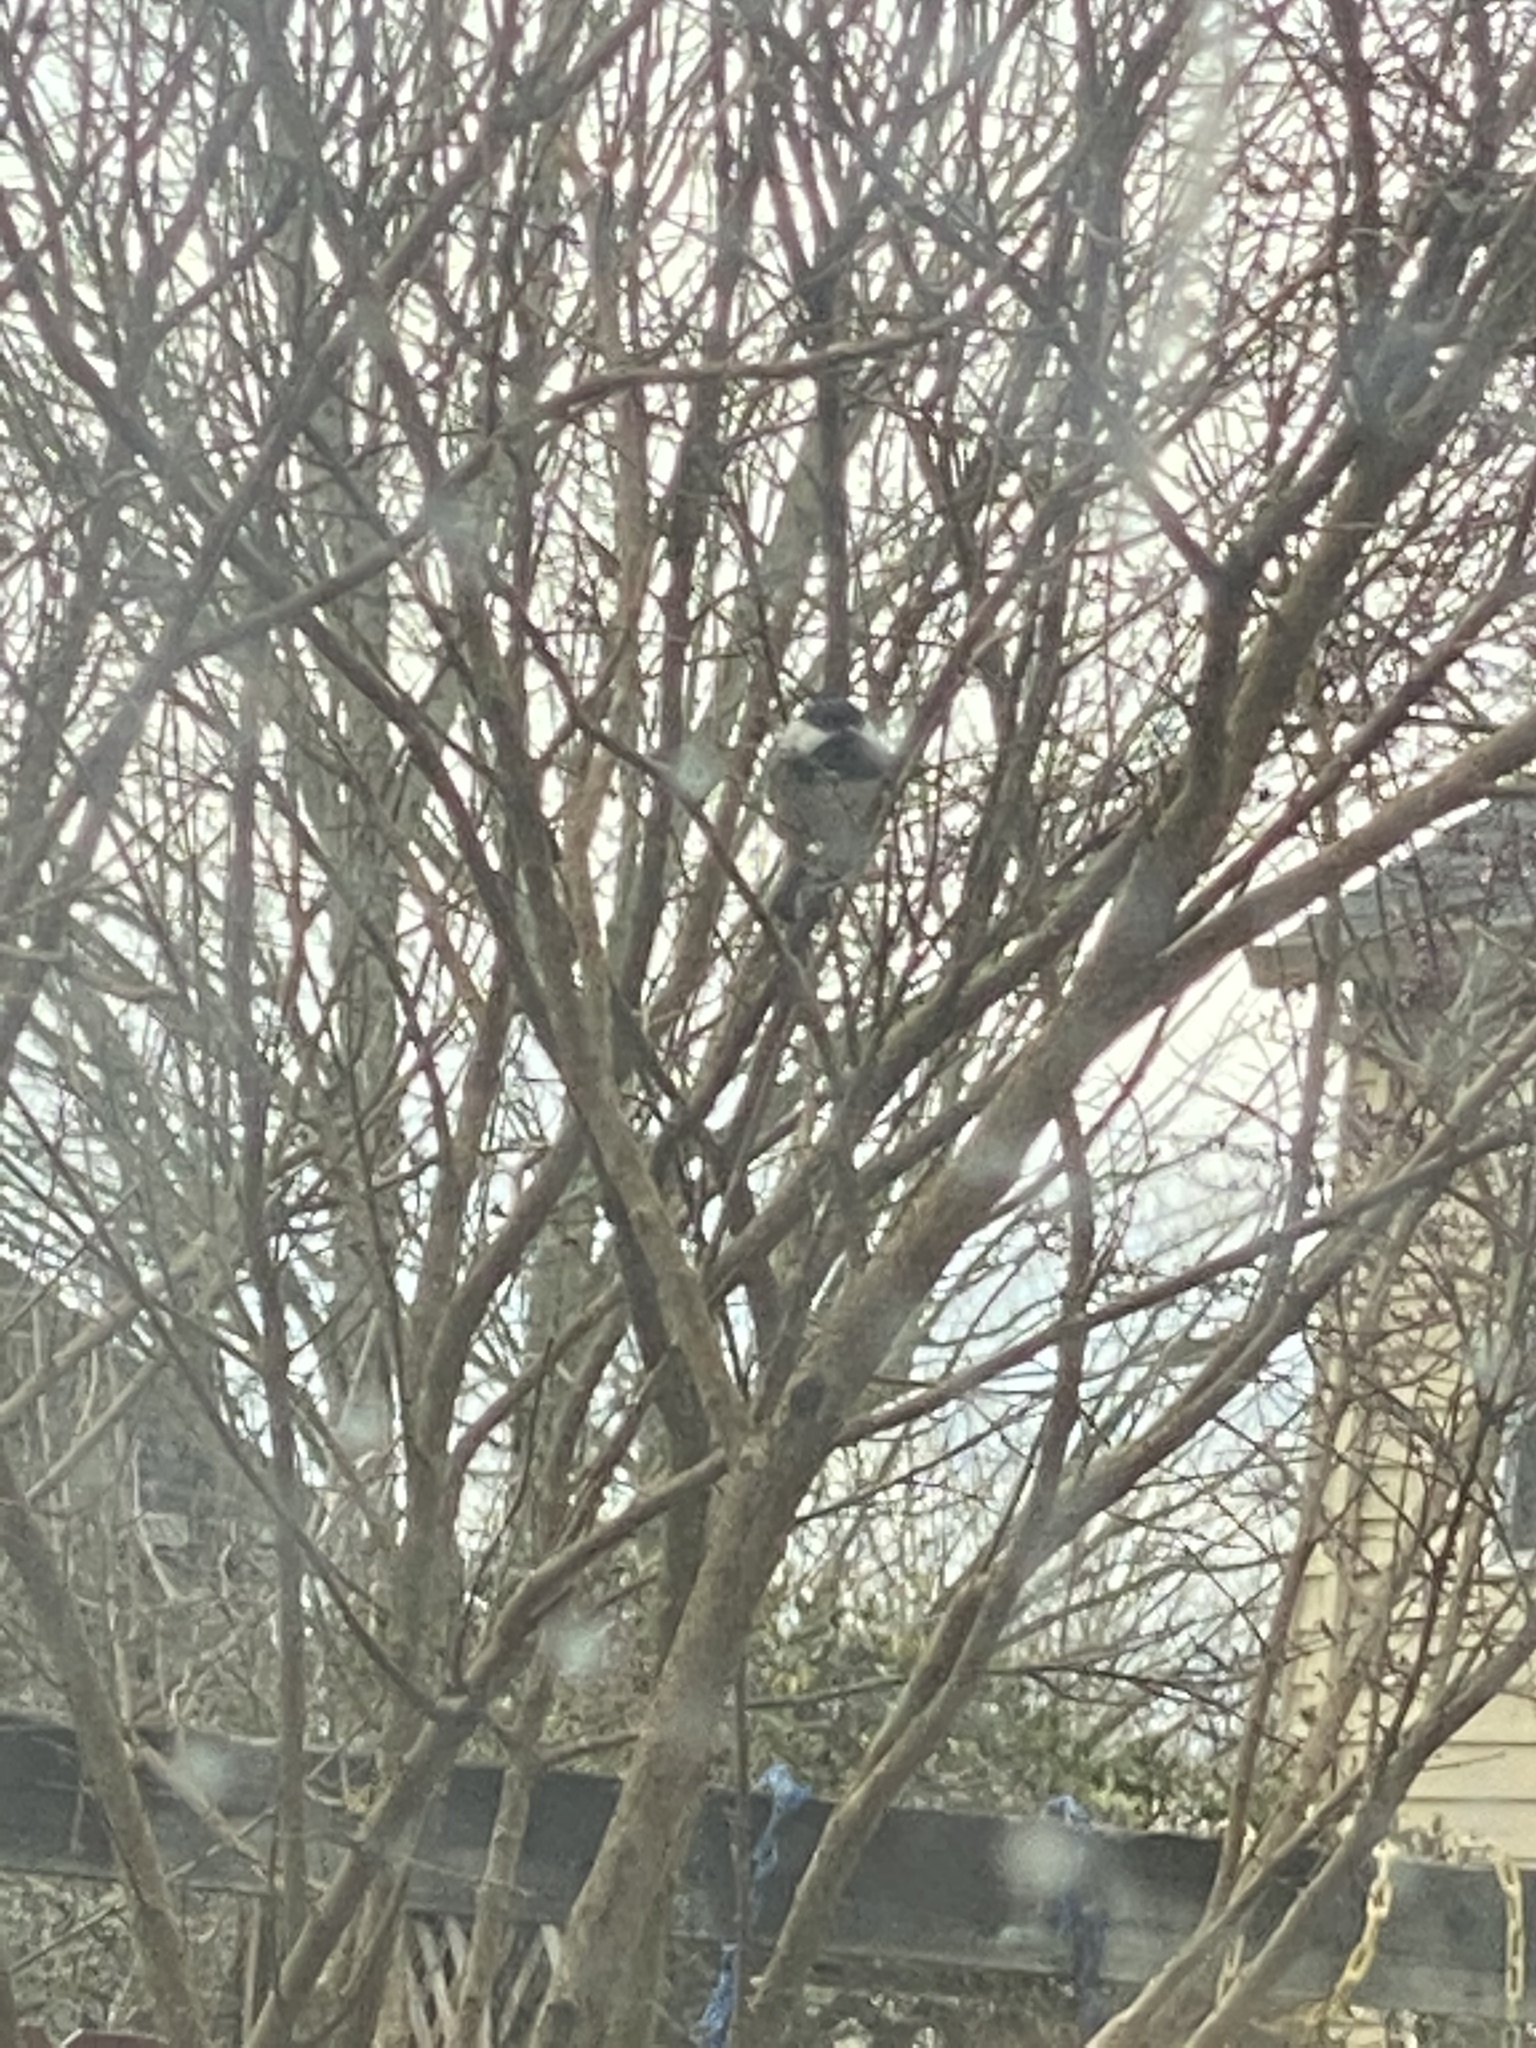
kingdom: Animalia
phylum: Chordata
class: Aves
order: Passeriformes
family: Paridae
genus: Poecile
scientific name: Poecile atricapillus
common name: Black-capped chickadee
